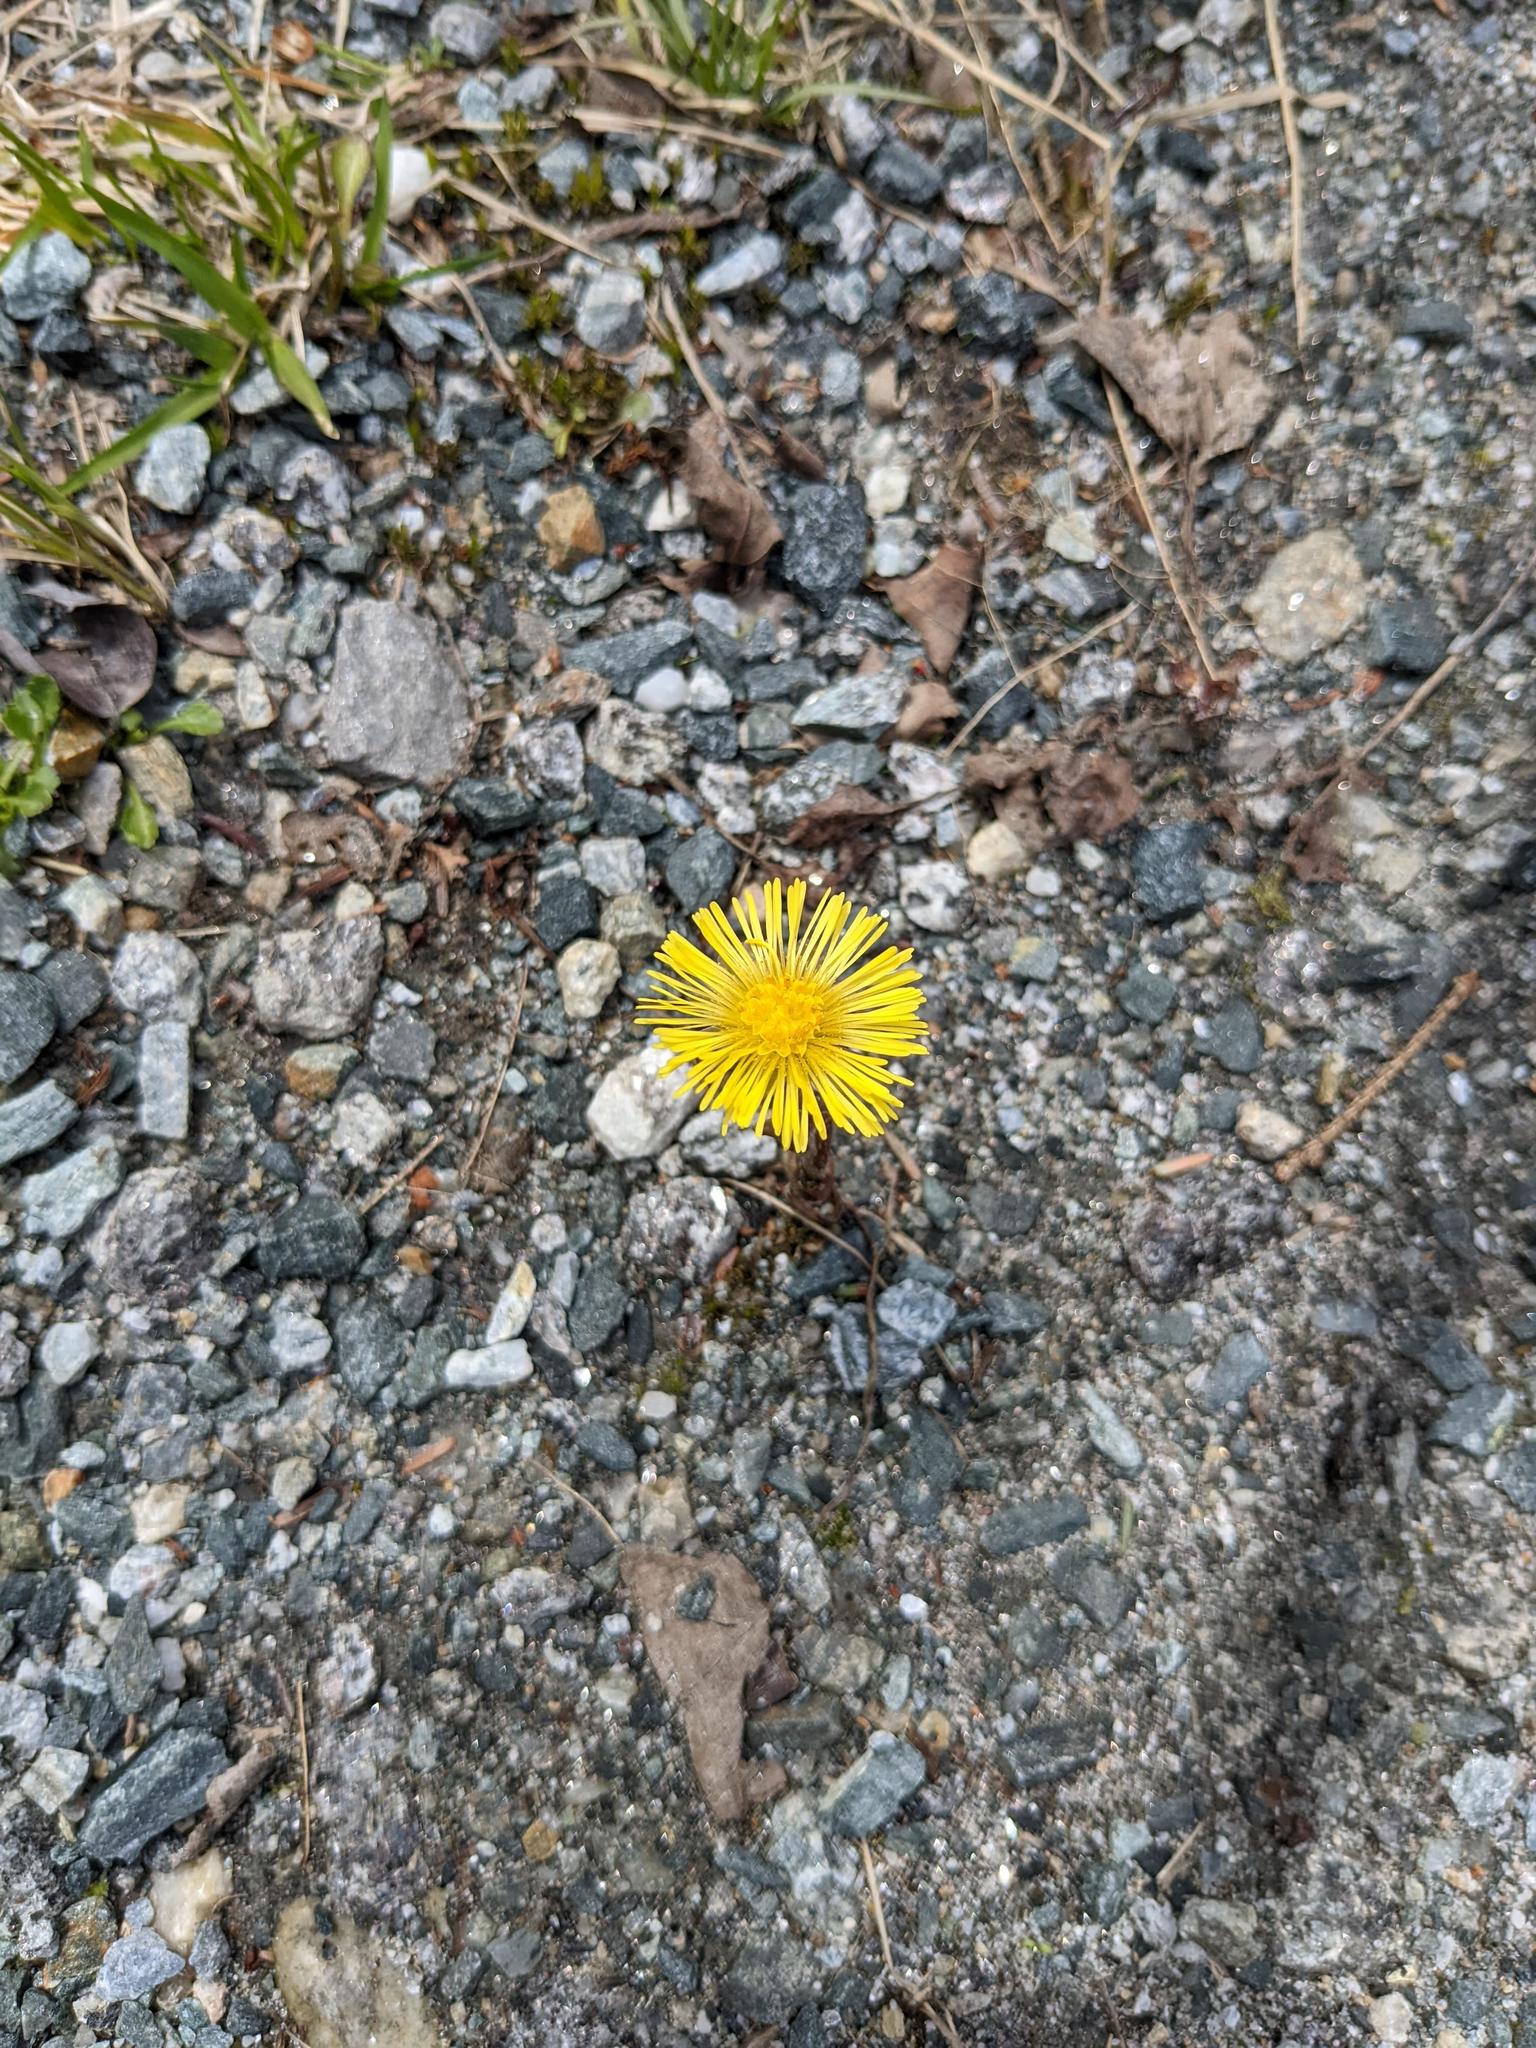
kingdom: Plantae
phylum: Tracheophyta
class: Magnoliopsida
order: Asterales
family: Asteraceae
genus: Tussilago
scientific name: Tussilago farfara
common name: Coltsfoot
